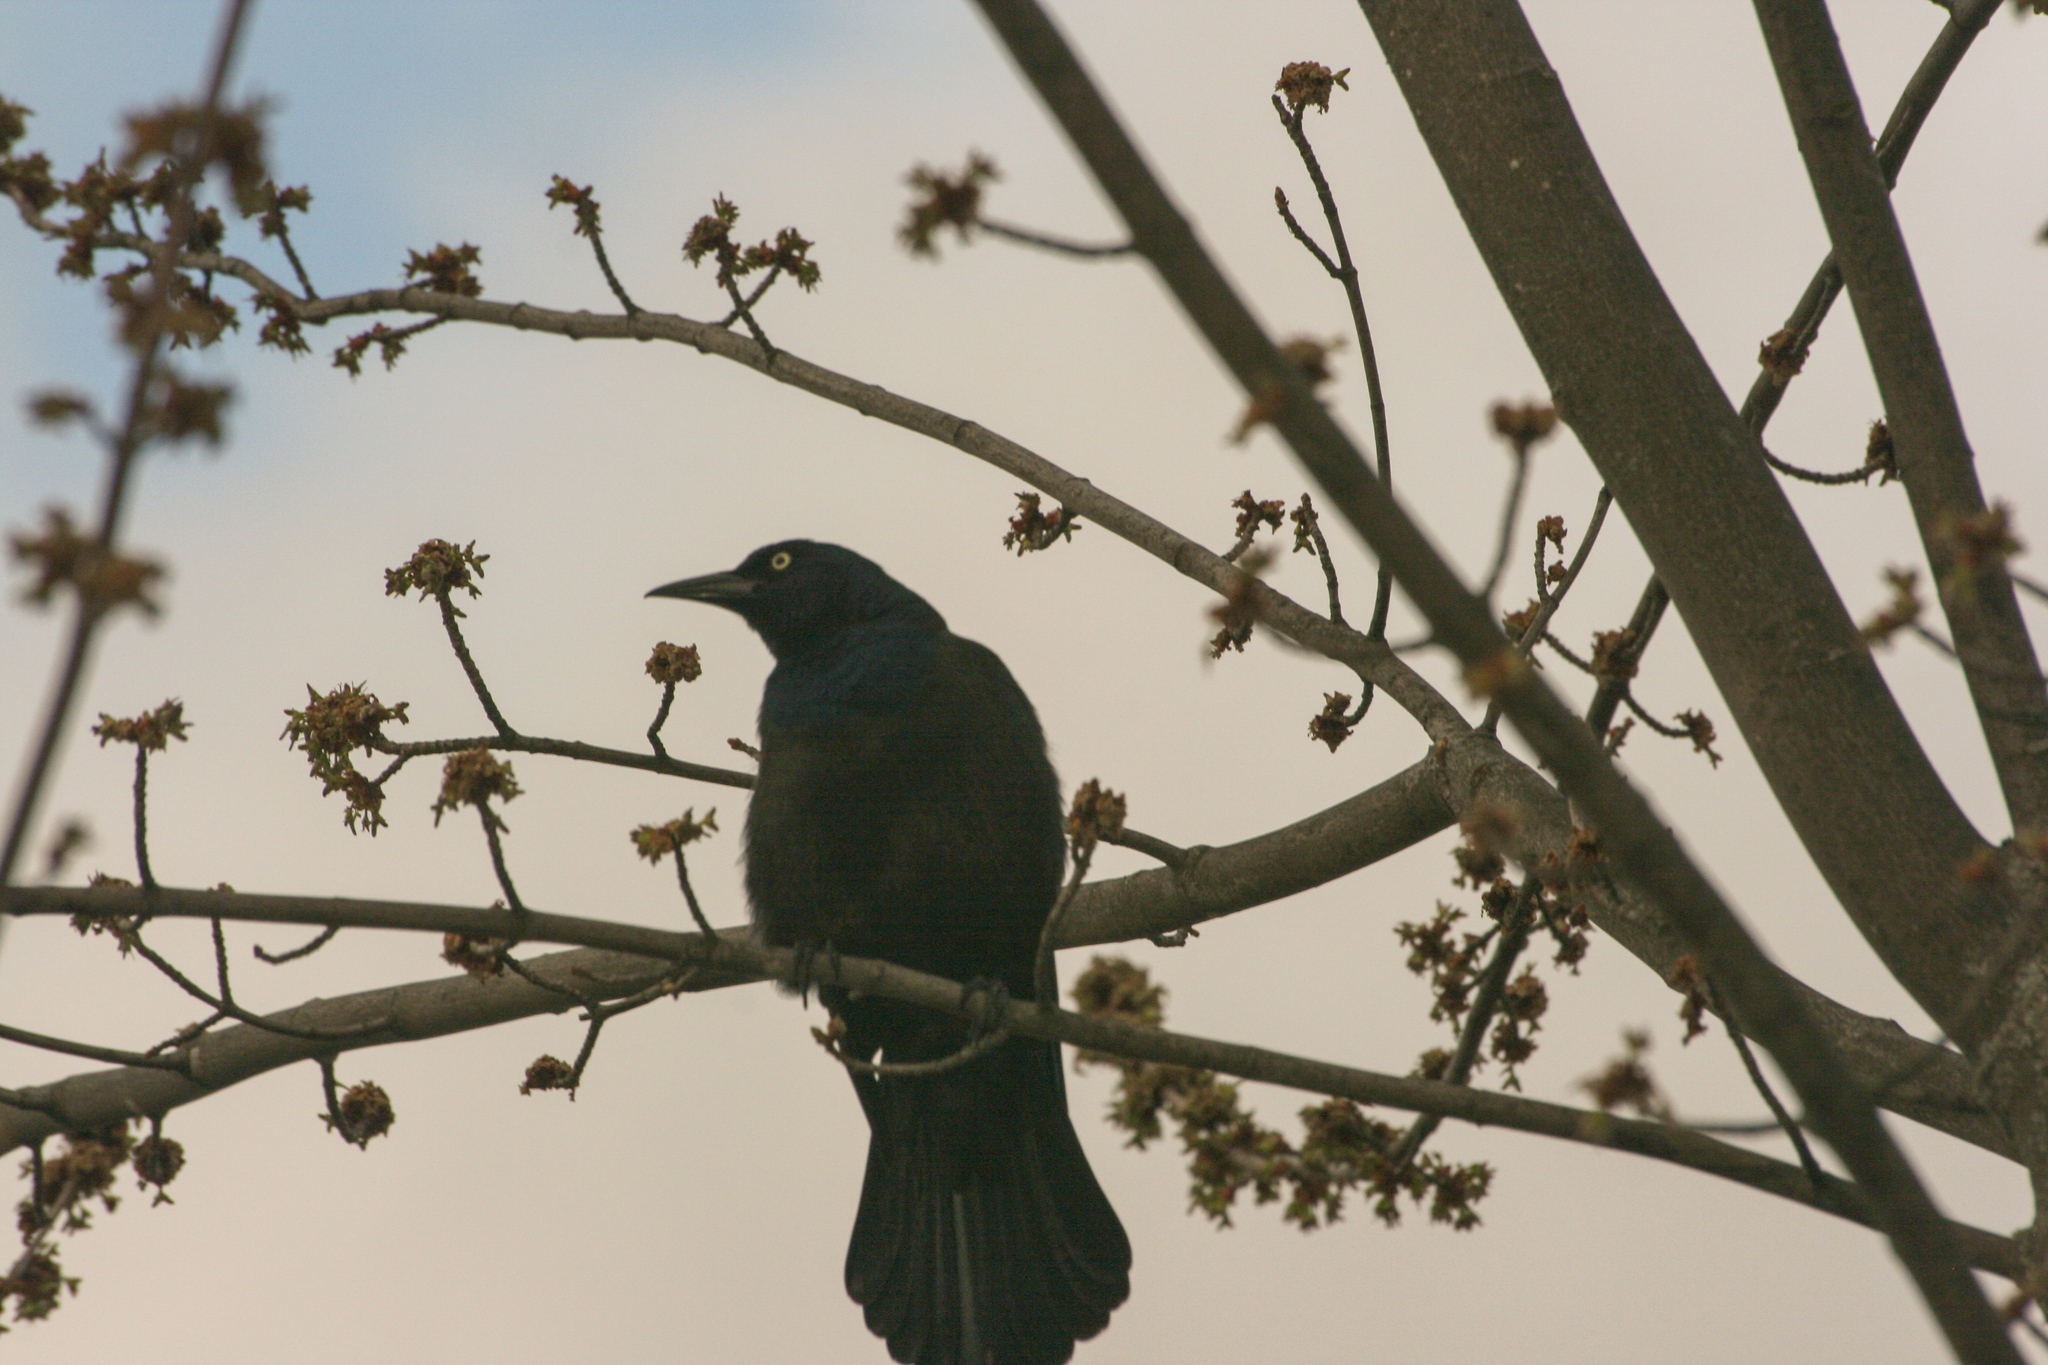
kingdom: Animalia
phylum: Chordata
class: Aves
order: Passeriformes
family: Icteridae
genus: Quiscalus
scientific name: Quiscalus quiscula
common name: Common grackle
